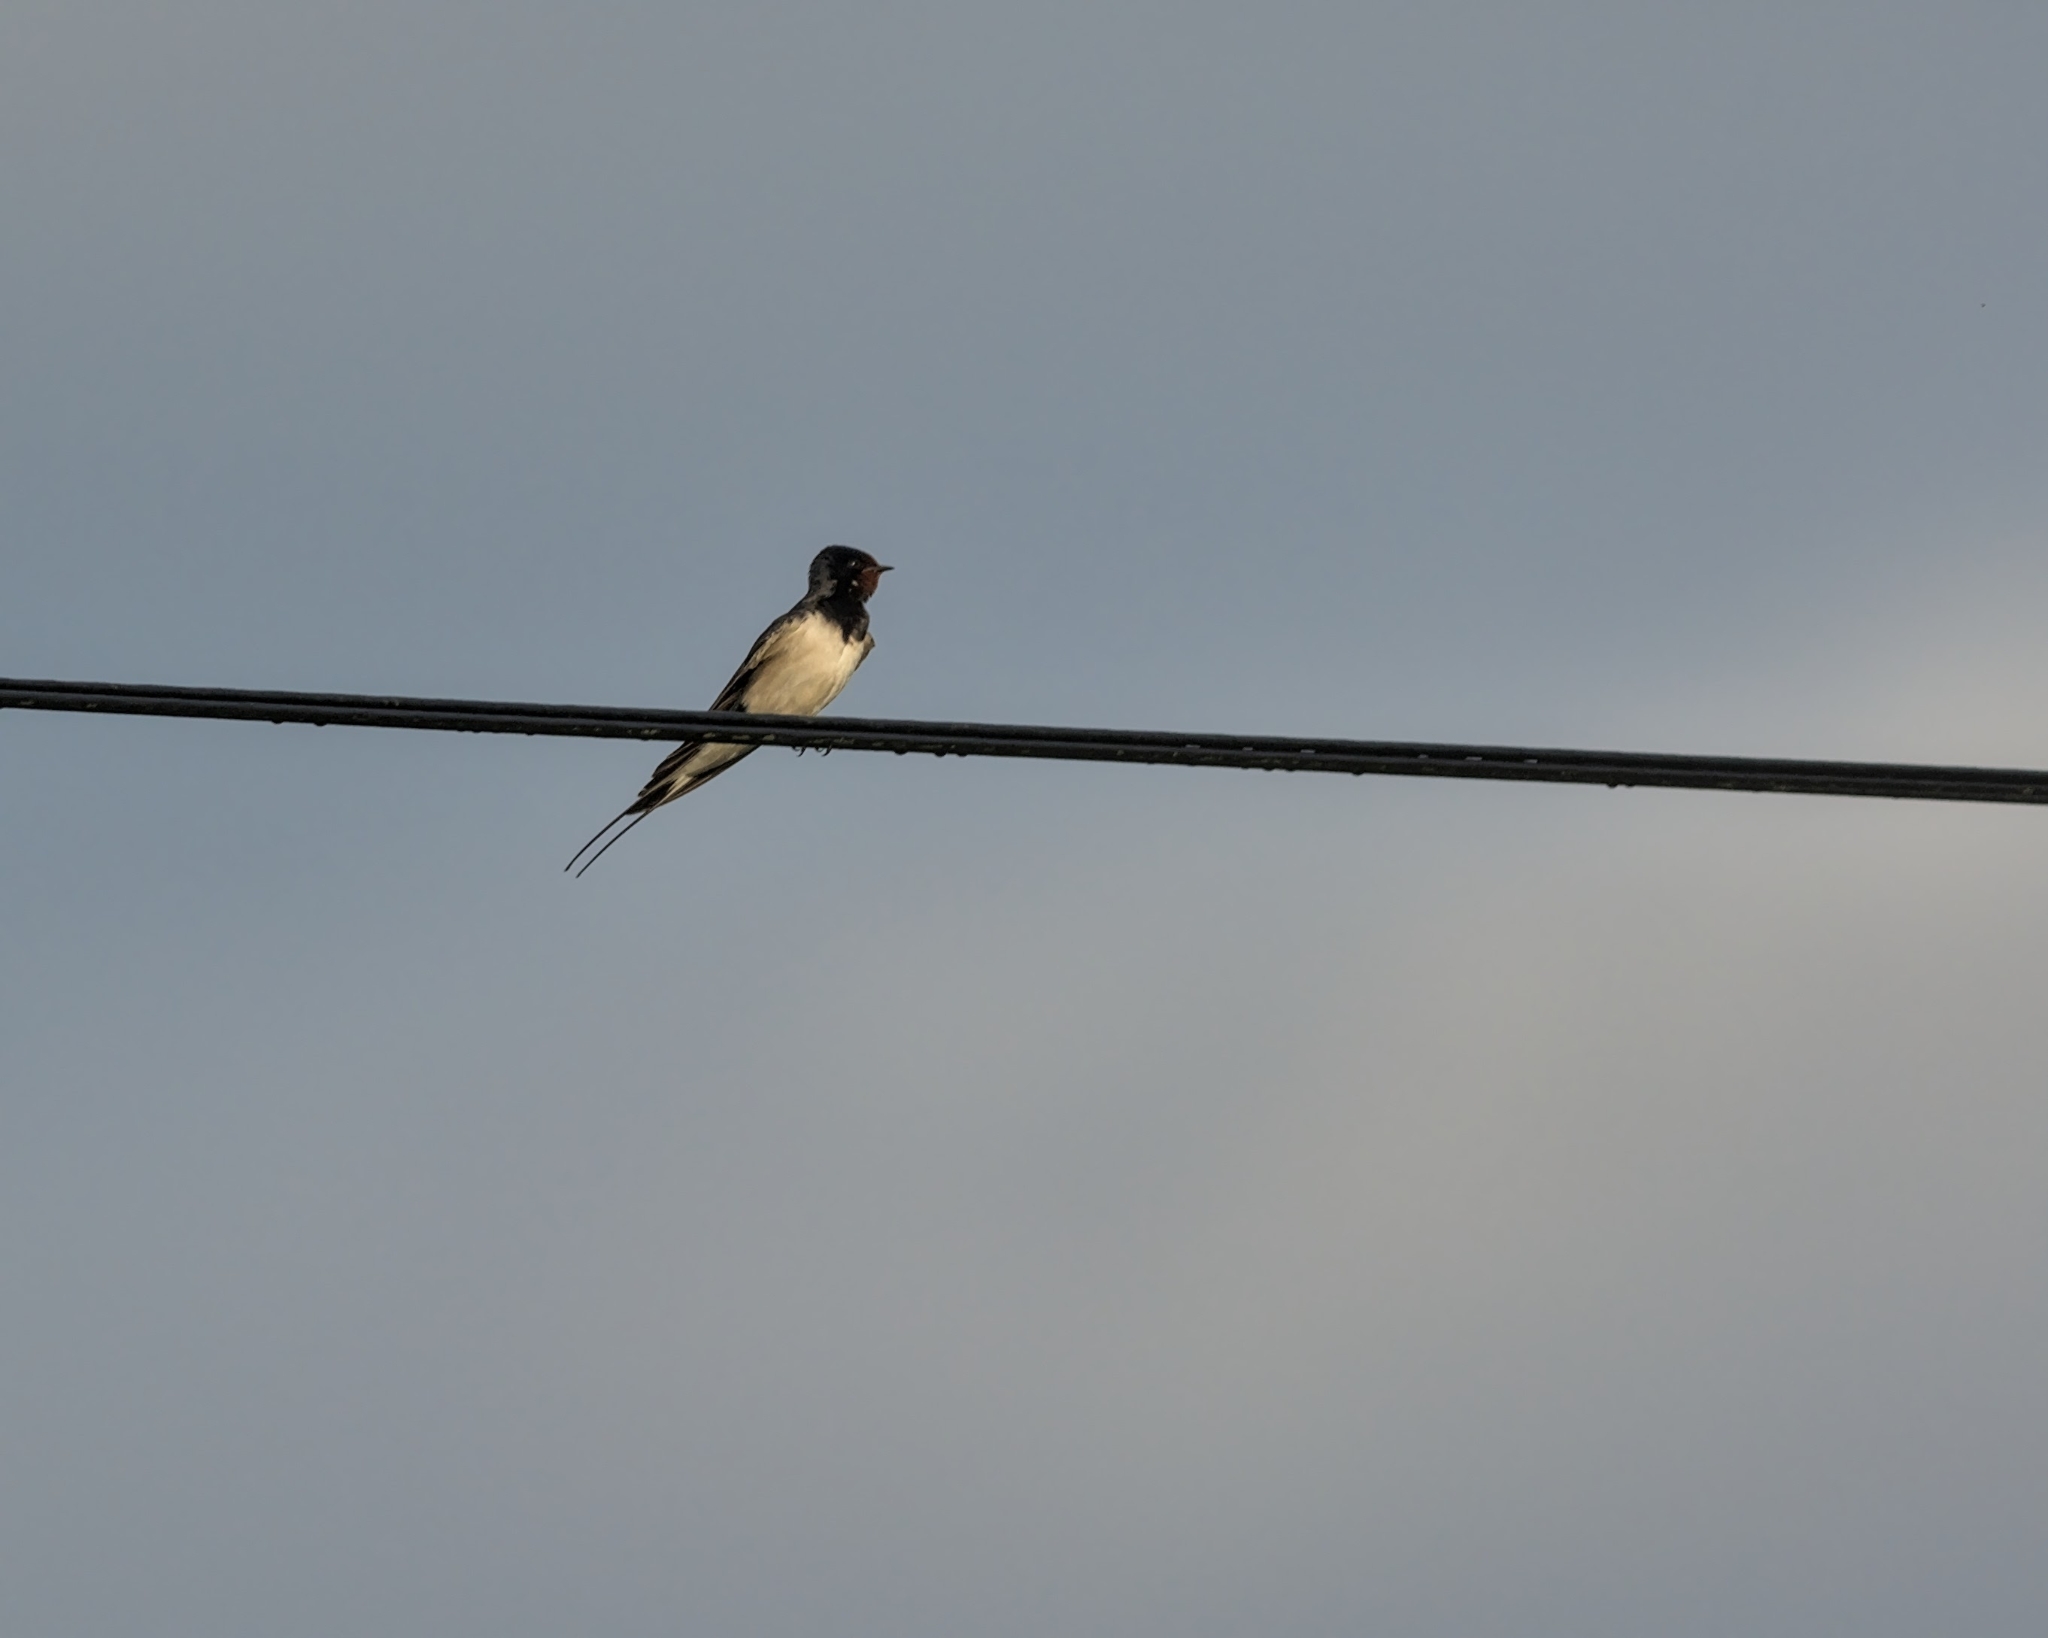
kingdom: Animalia
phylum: Chordata
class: Aves
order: Passeriformes
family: Hirundinidae
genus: Hirundo
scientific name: Hirundo rustica
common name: Barn swallow
